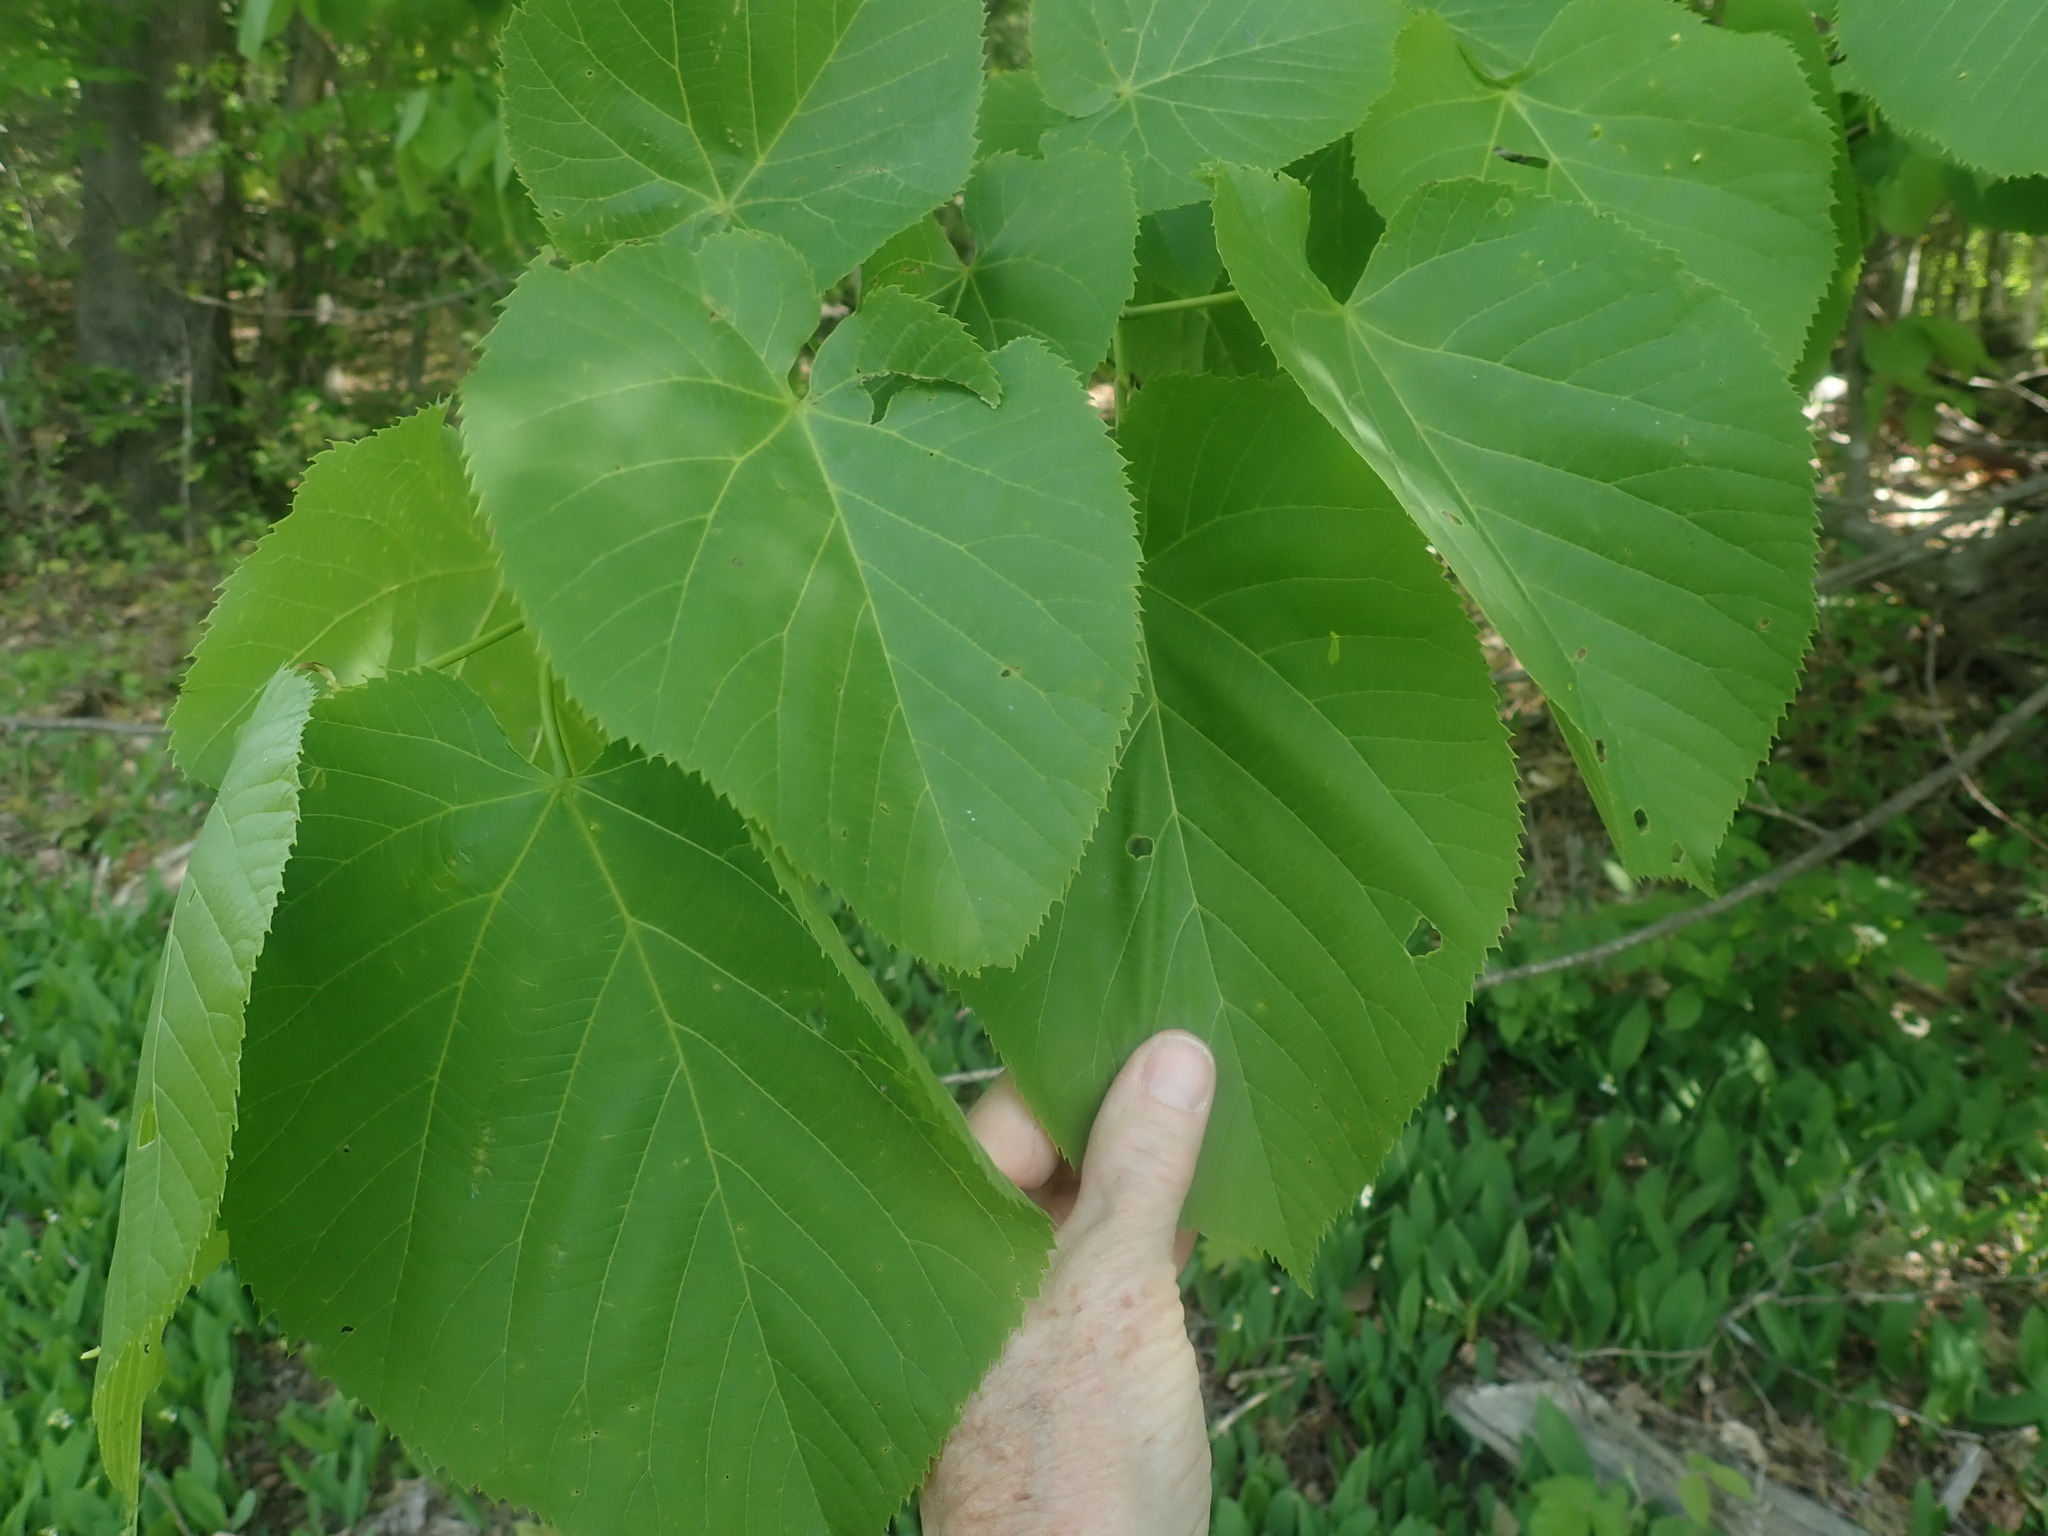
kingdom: Plantae
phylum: Tracheophyta
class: Magnoliopsida
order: Malvales
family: Malvaceae
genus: Tilia
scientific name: Tilia americana
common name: Basswood
